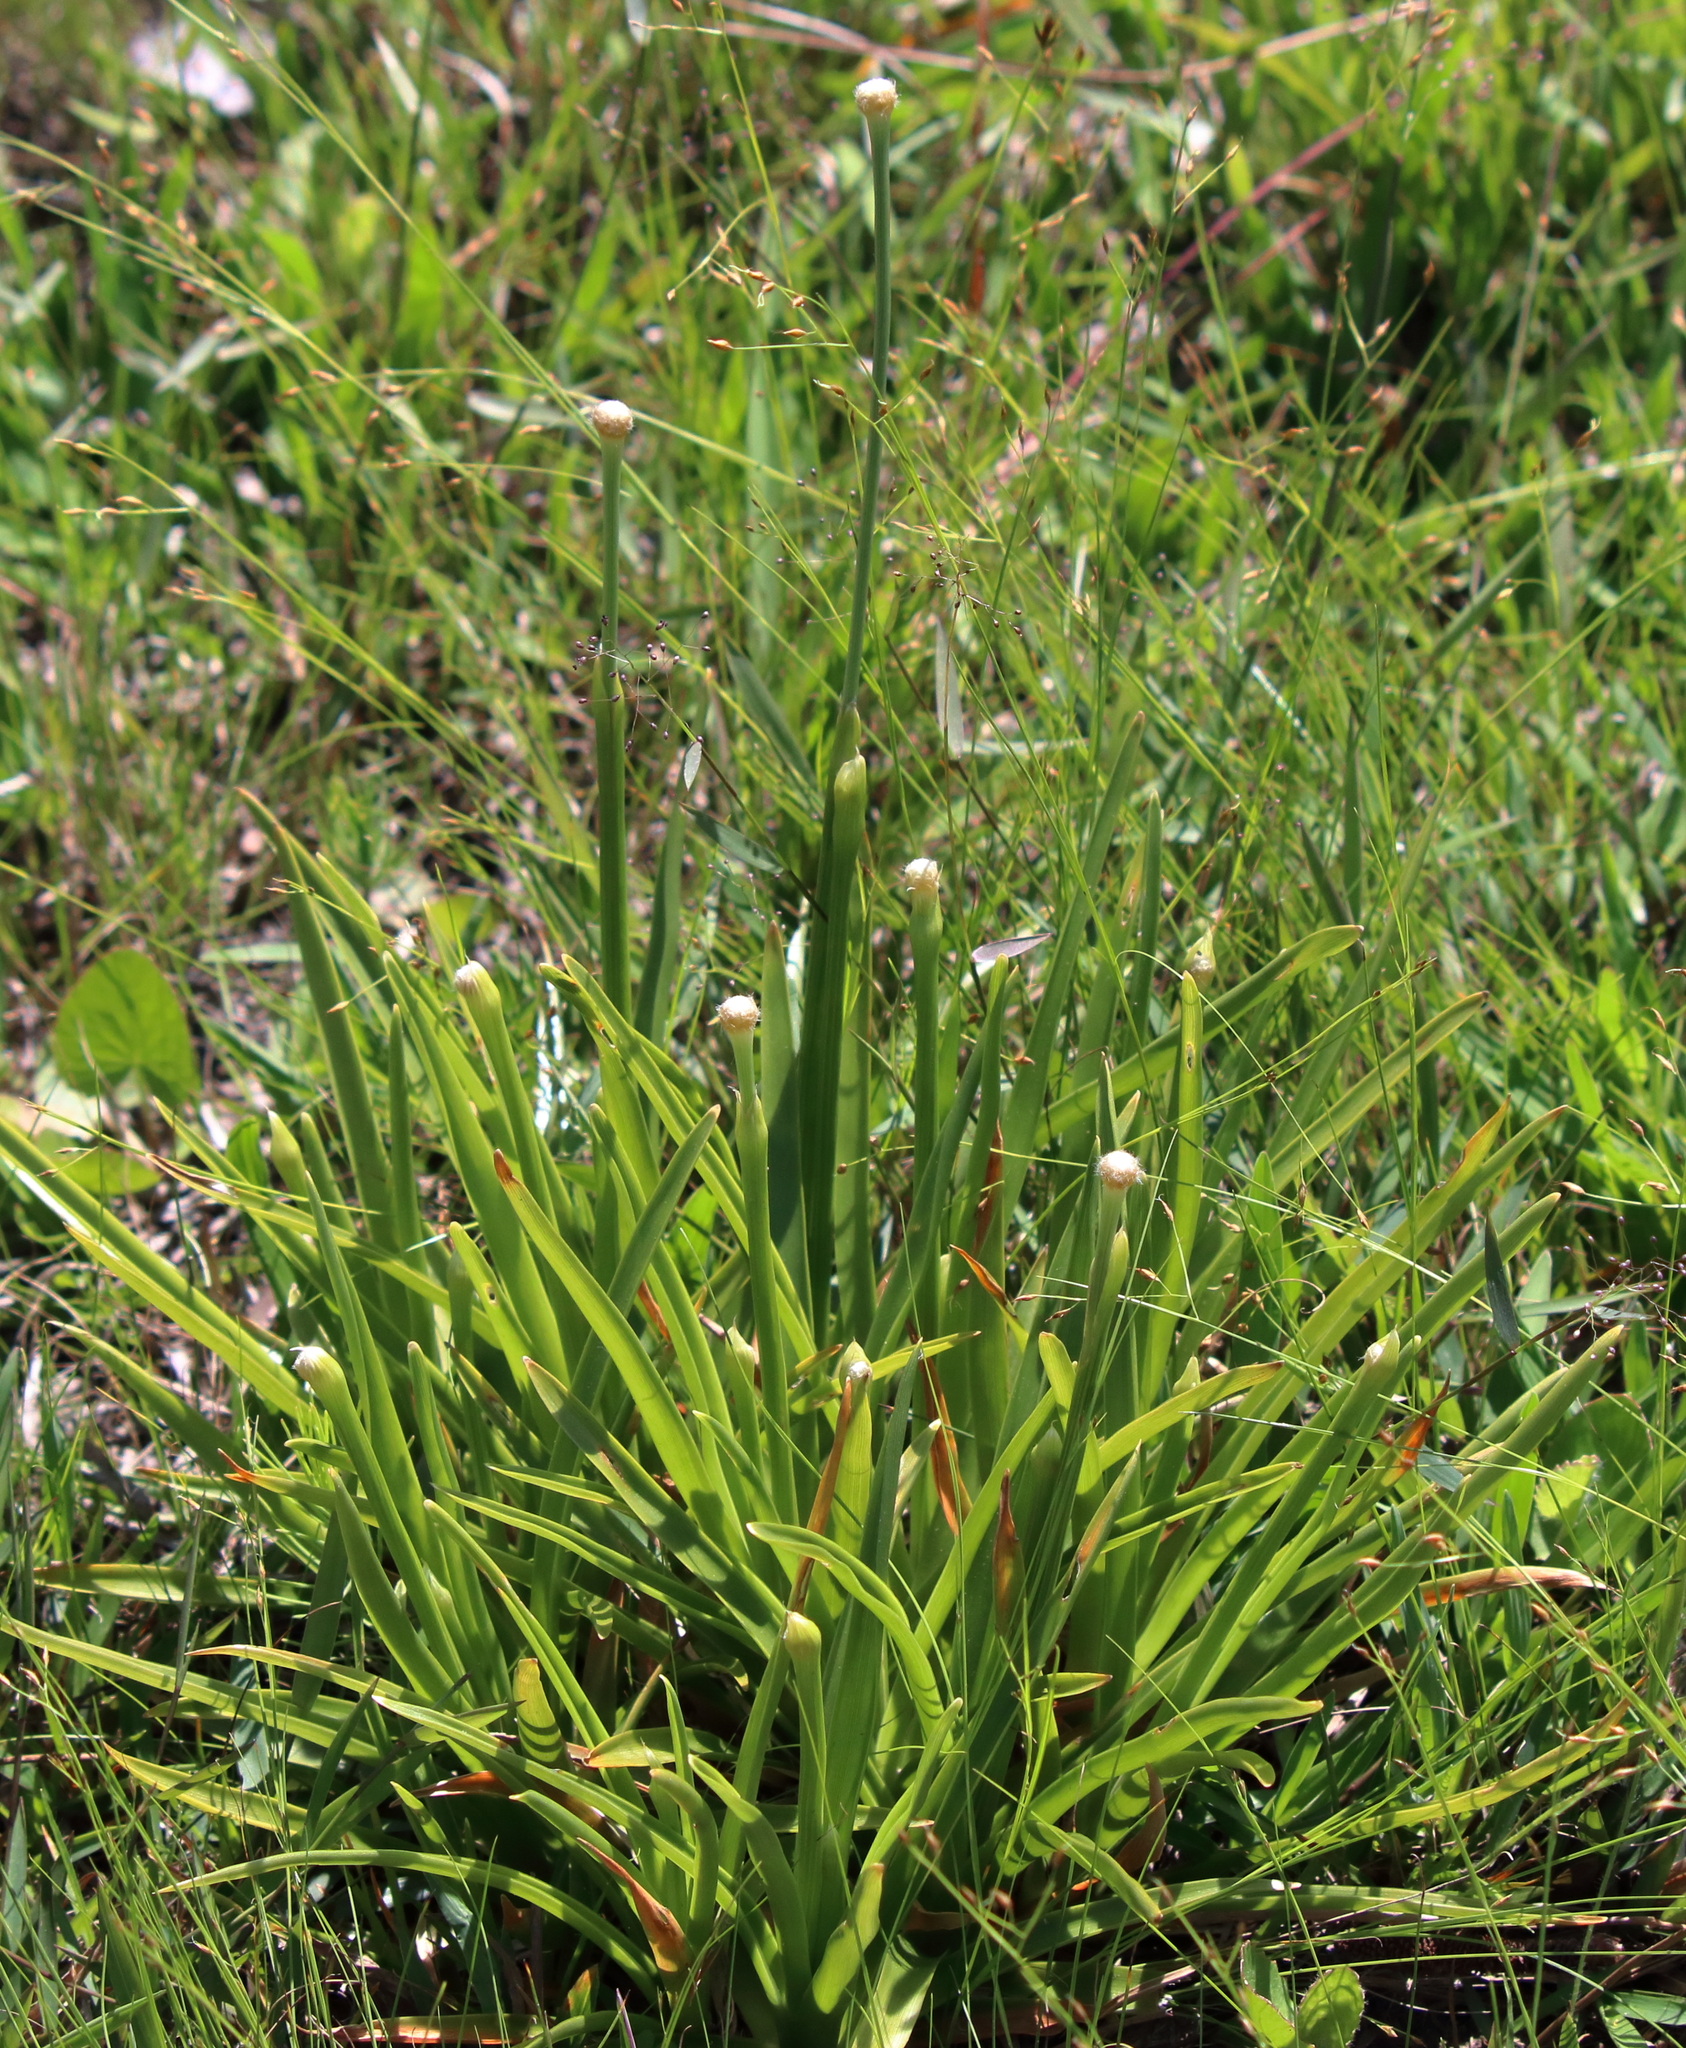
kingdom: Plantae
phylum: Tracheophyta
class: Liliopsida
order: Poales
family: Eriocaulaceae
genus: Eriocaulon
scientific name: Eriocaulon decangulare
